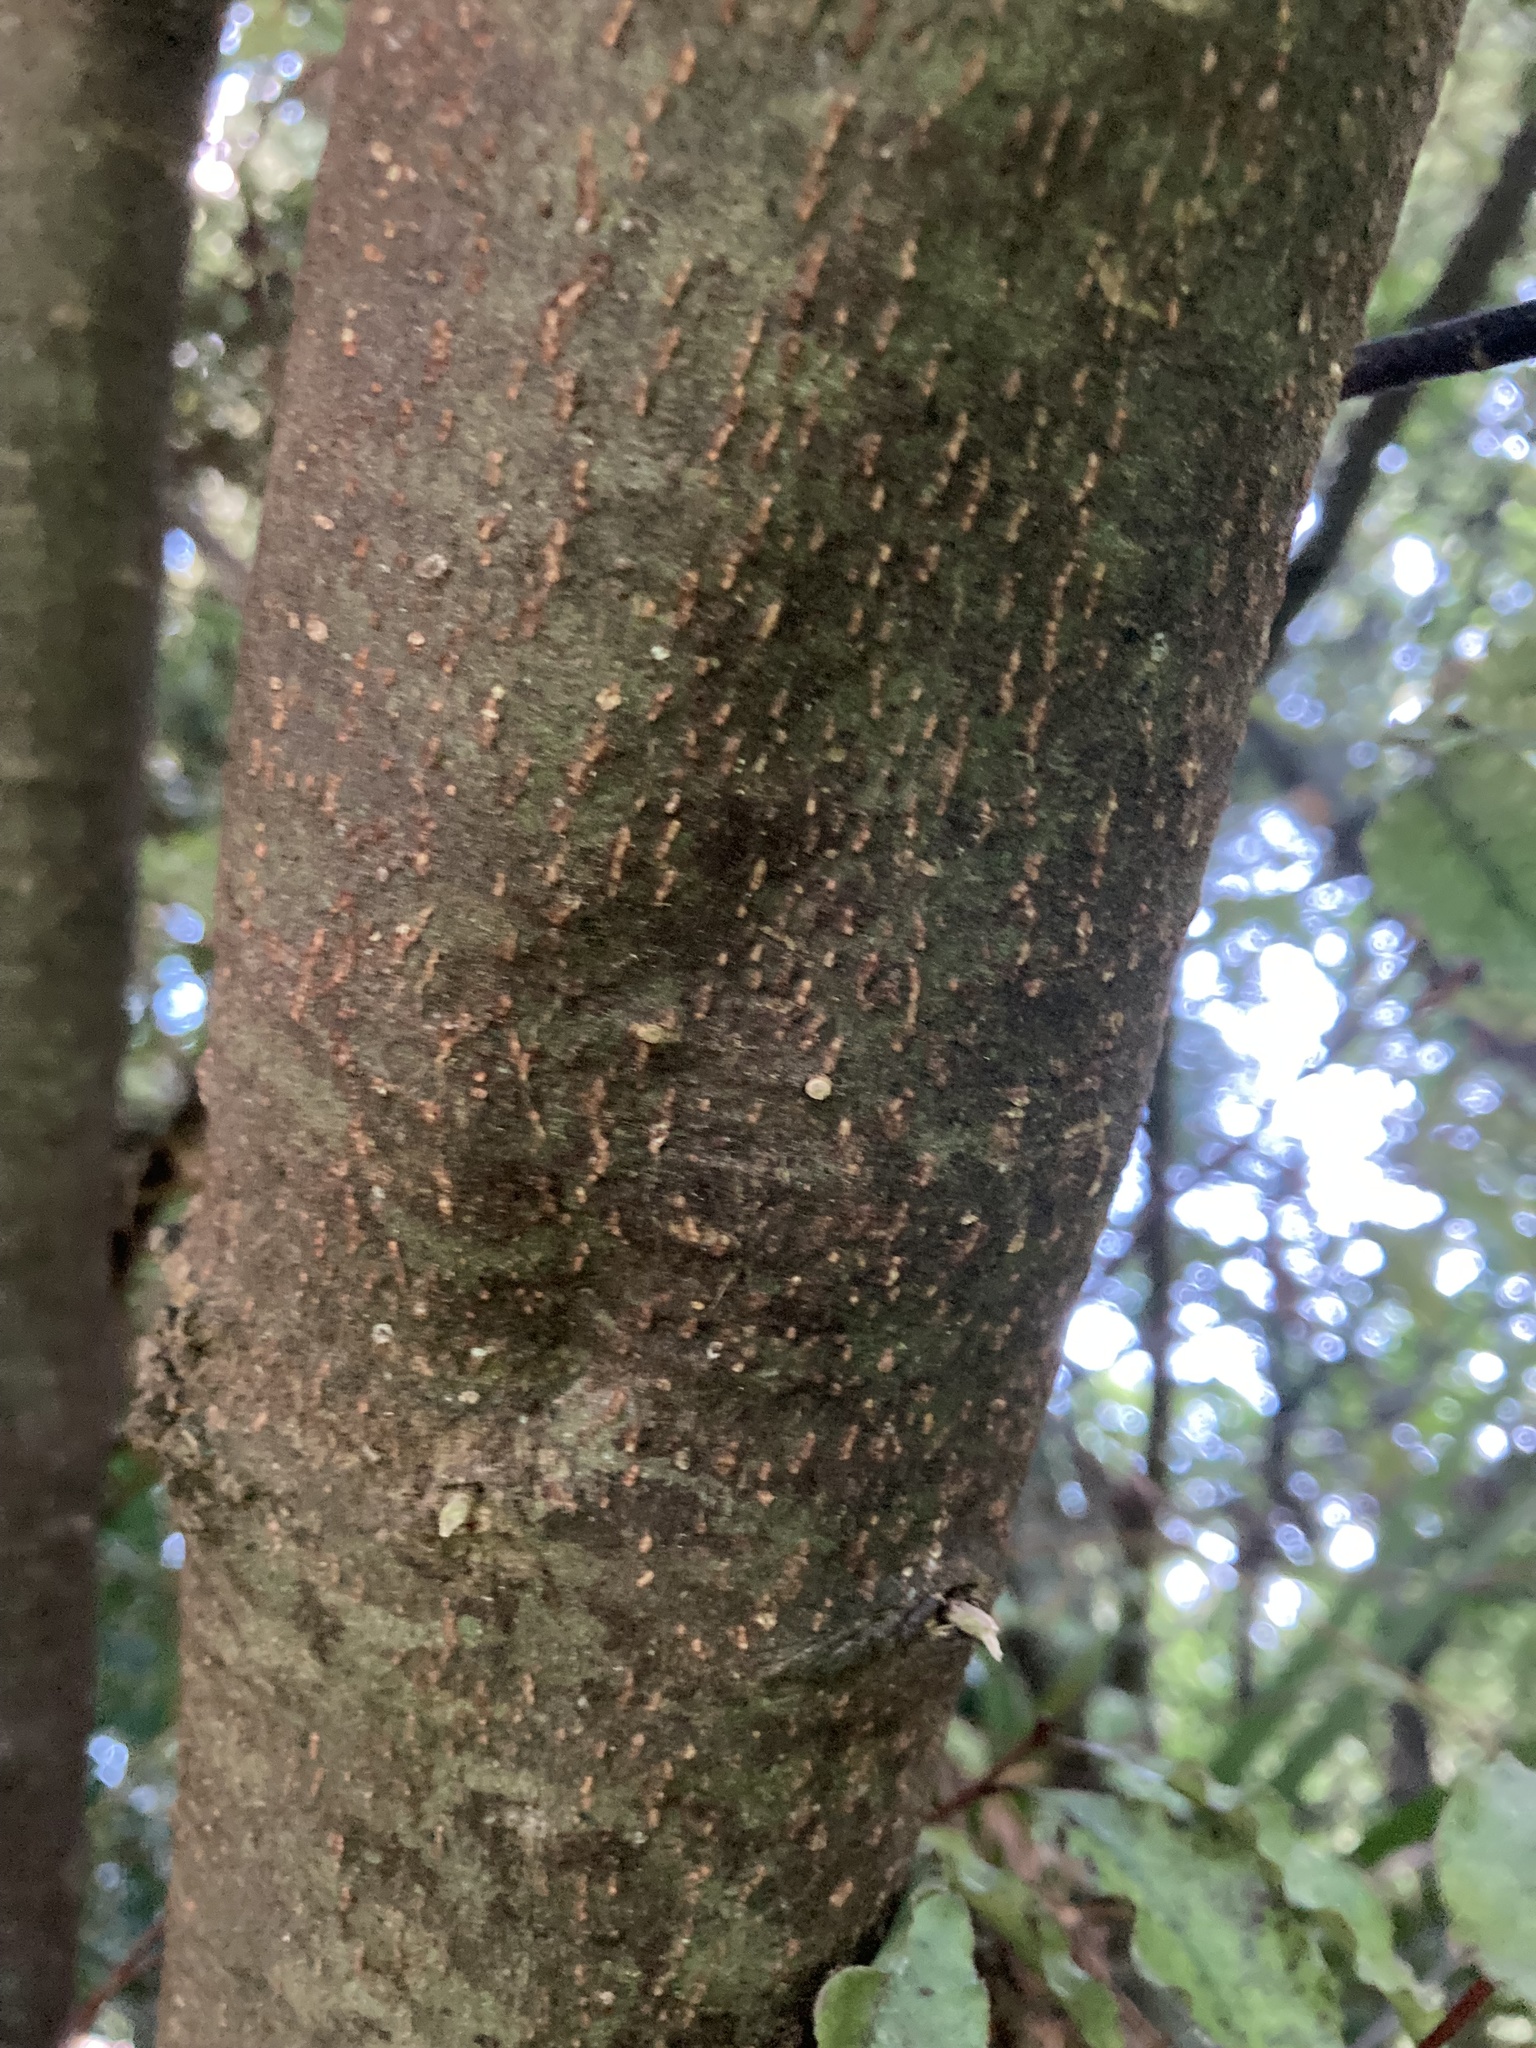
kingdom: Plantae
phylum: Tracheophyta
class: Magnoliopsida
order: Malvales
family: Malvaceae
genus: Hoheria
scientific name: Hoheria sexstylosa
